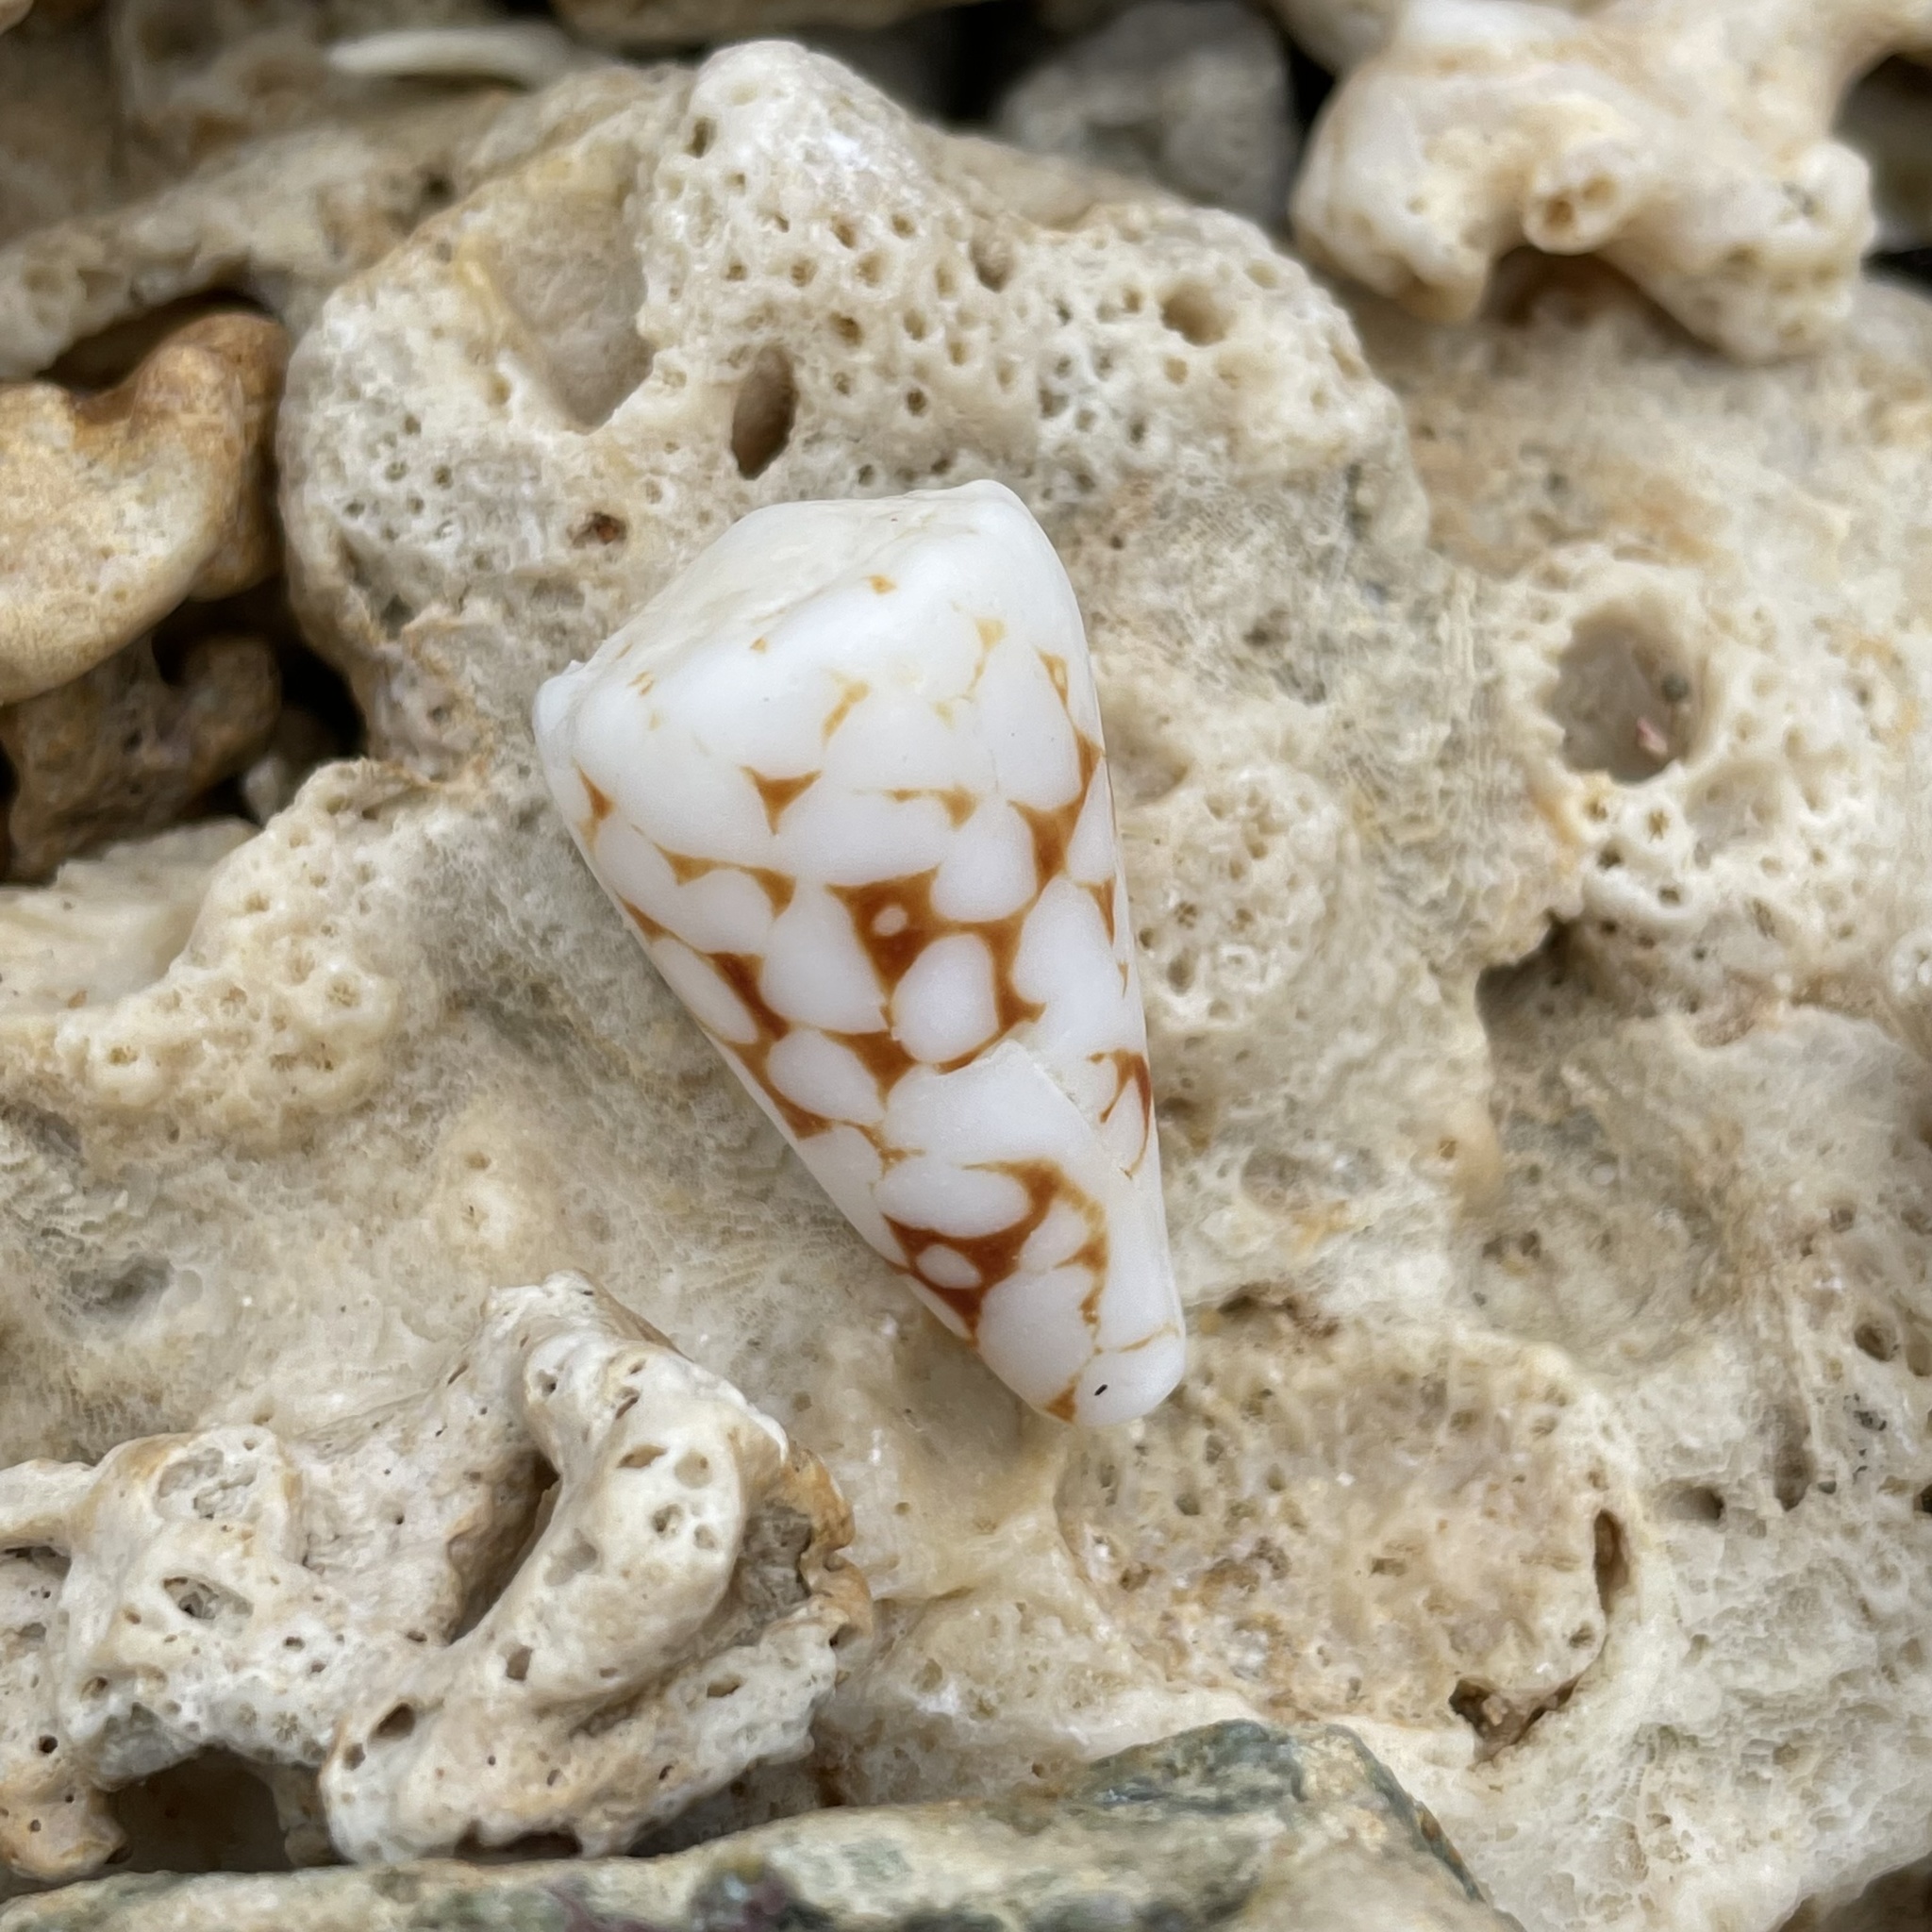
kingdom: Animalia
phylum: Mollusca
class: Gastropoda
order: Neogastropoda
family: Conidae
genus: Conus
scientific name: Conus bandanus
